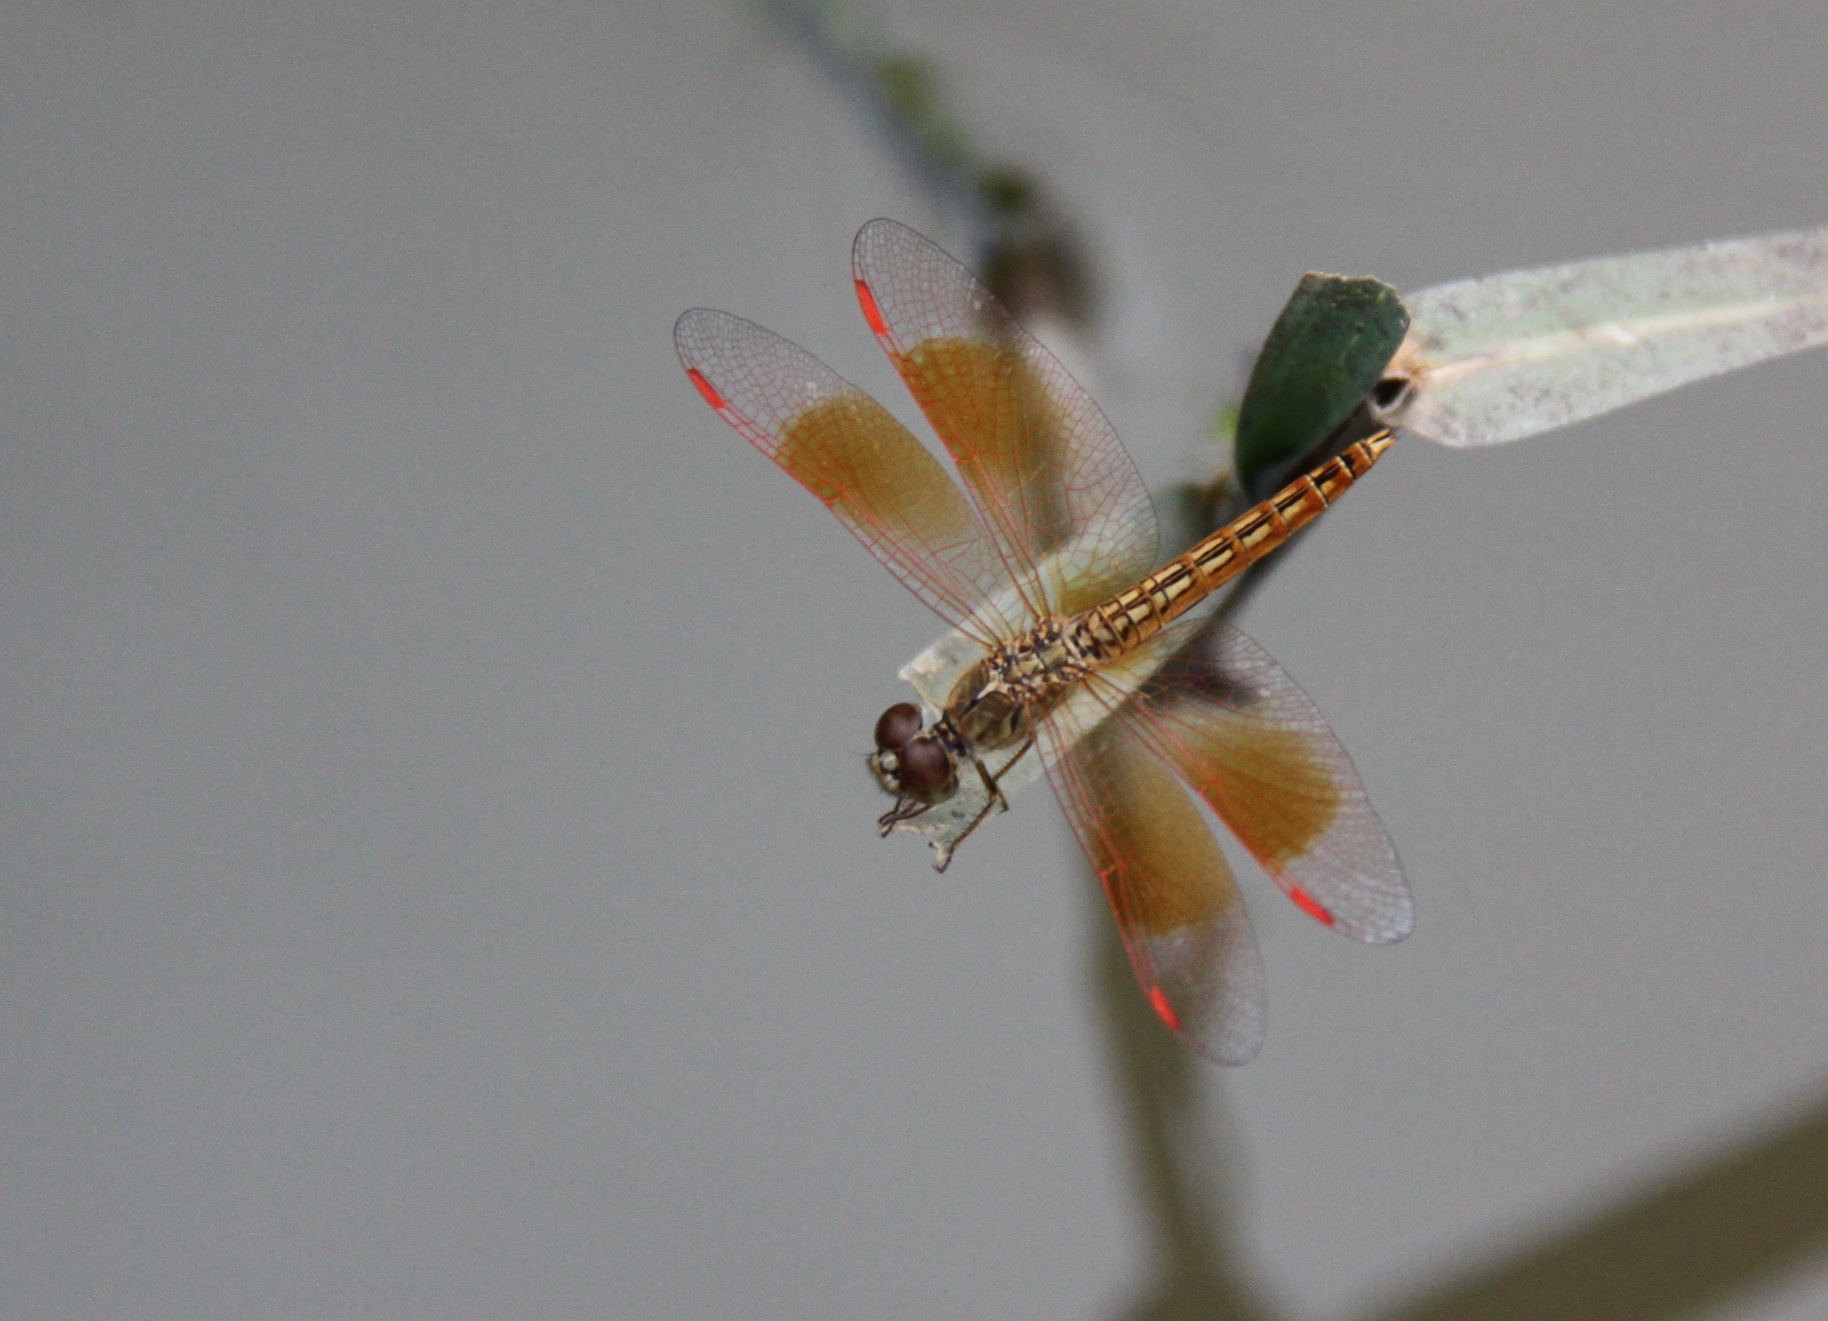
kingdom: Animalia
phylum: Arthropoda
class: Insecta
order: Odonata
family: Libellulidae
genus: Brachythemis
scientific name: Brachythemis contaminata
